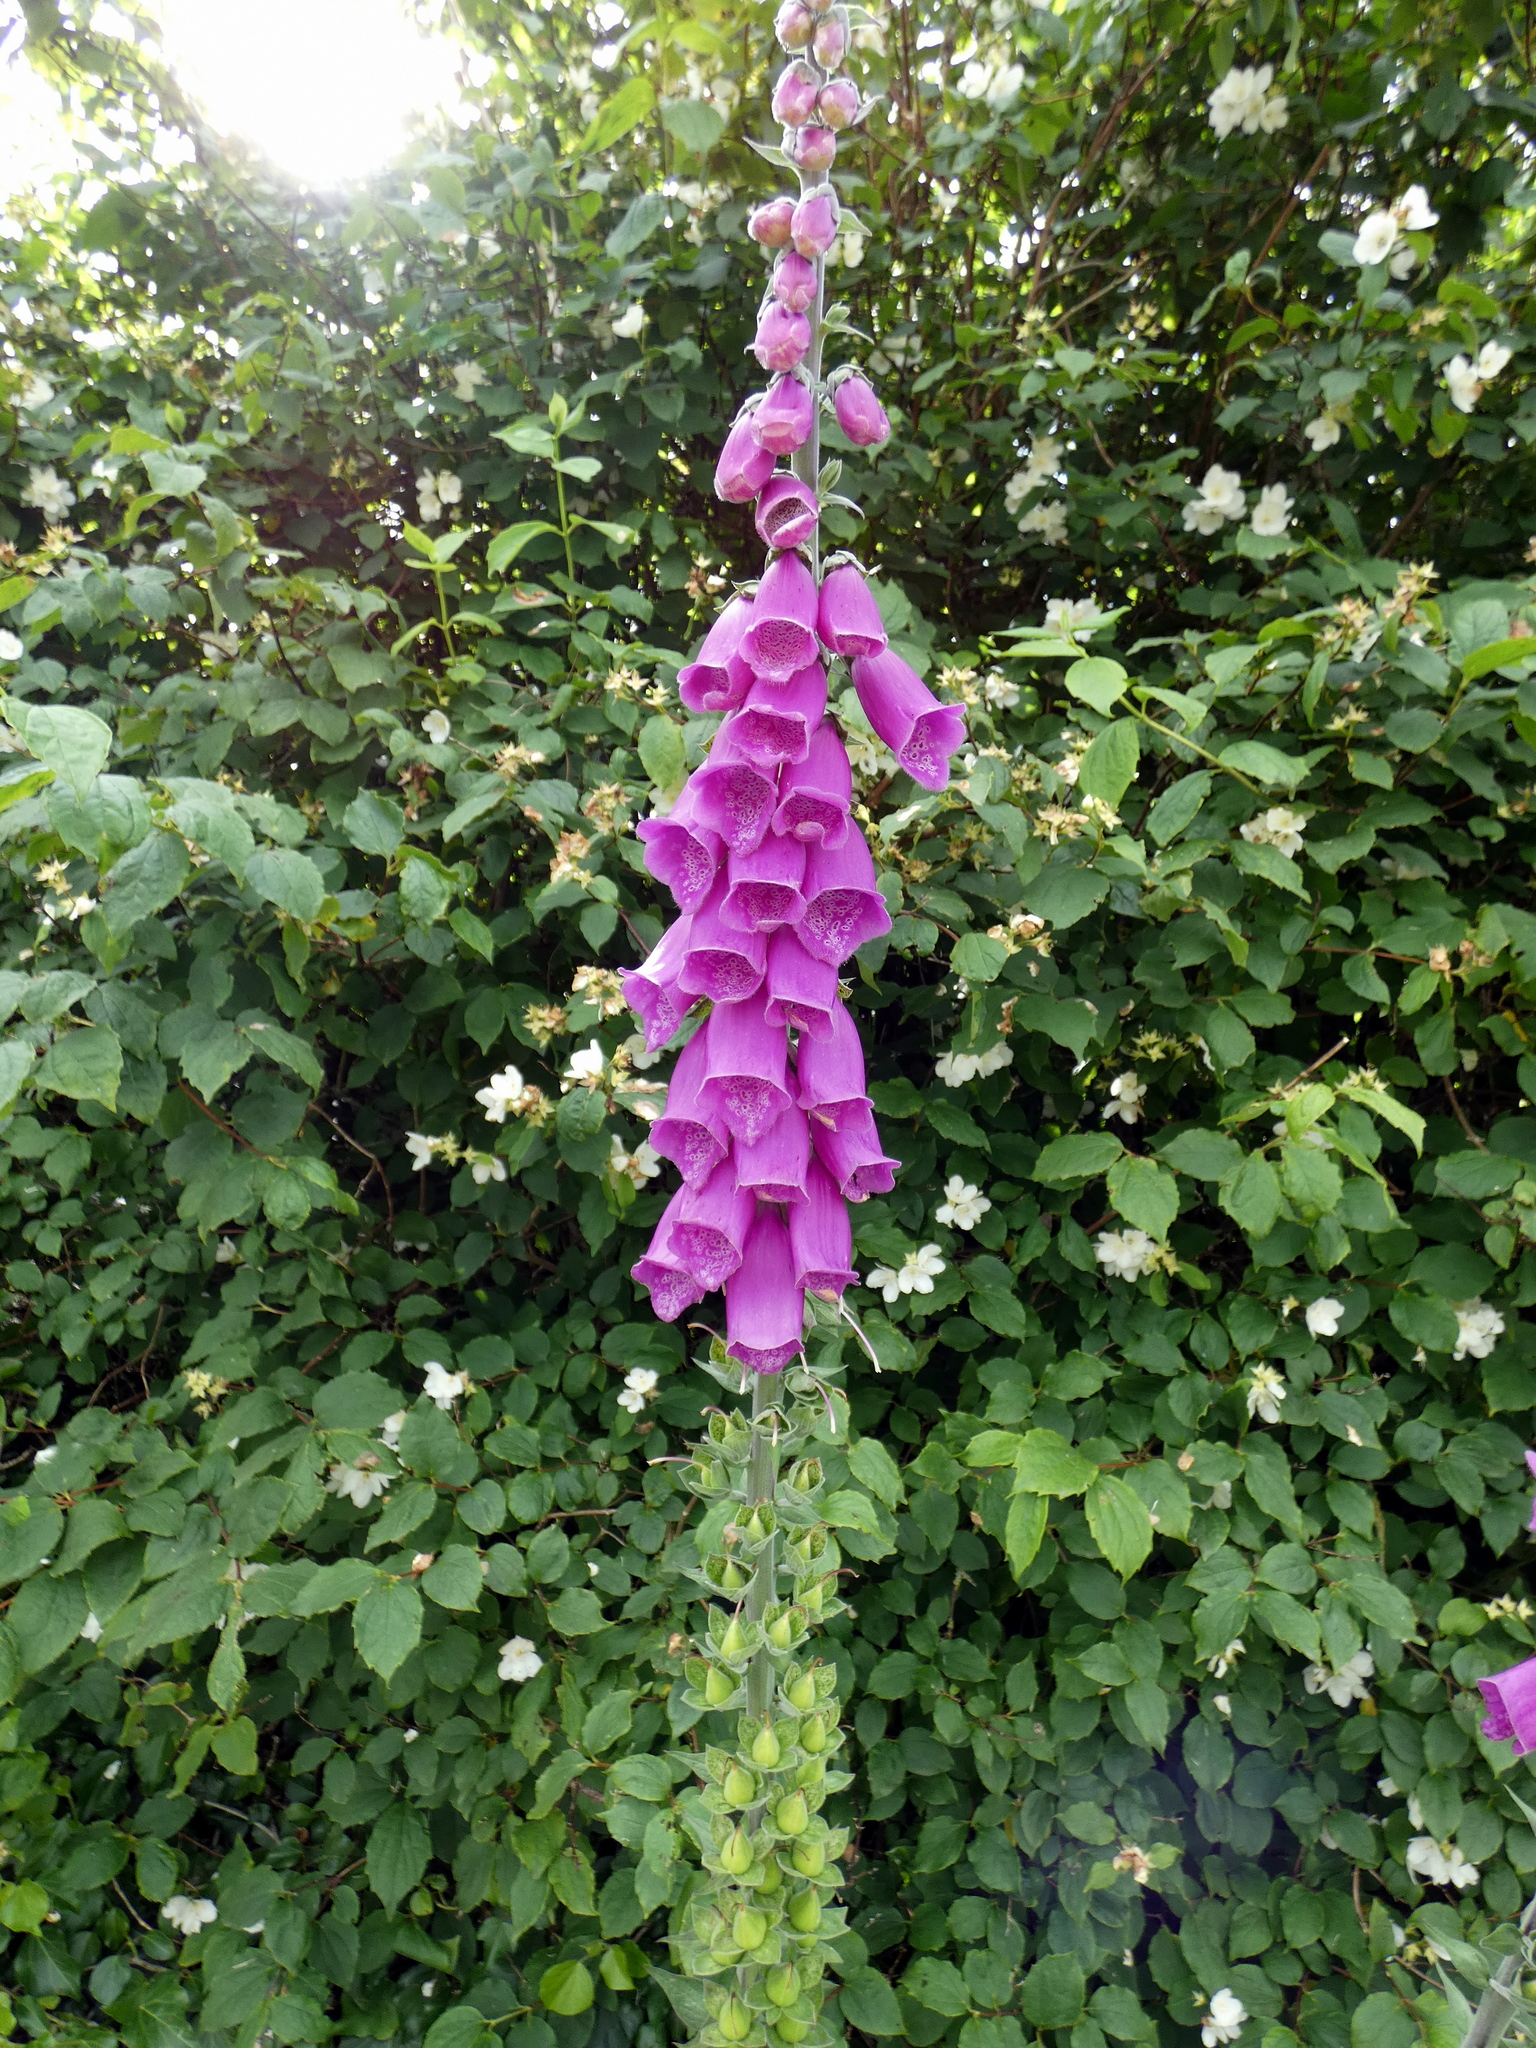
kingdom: Plantae
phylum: Tracheophyta
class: Magnoliopsida
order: Lamiales
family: Plantaginaceae
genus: Digitalis
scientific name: Digitalis purpurea
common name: Foxglove
